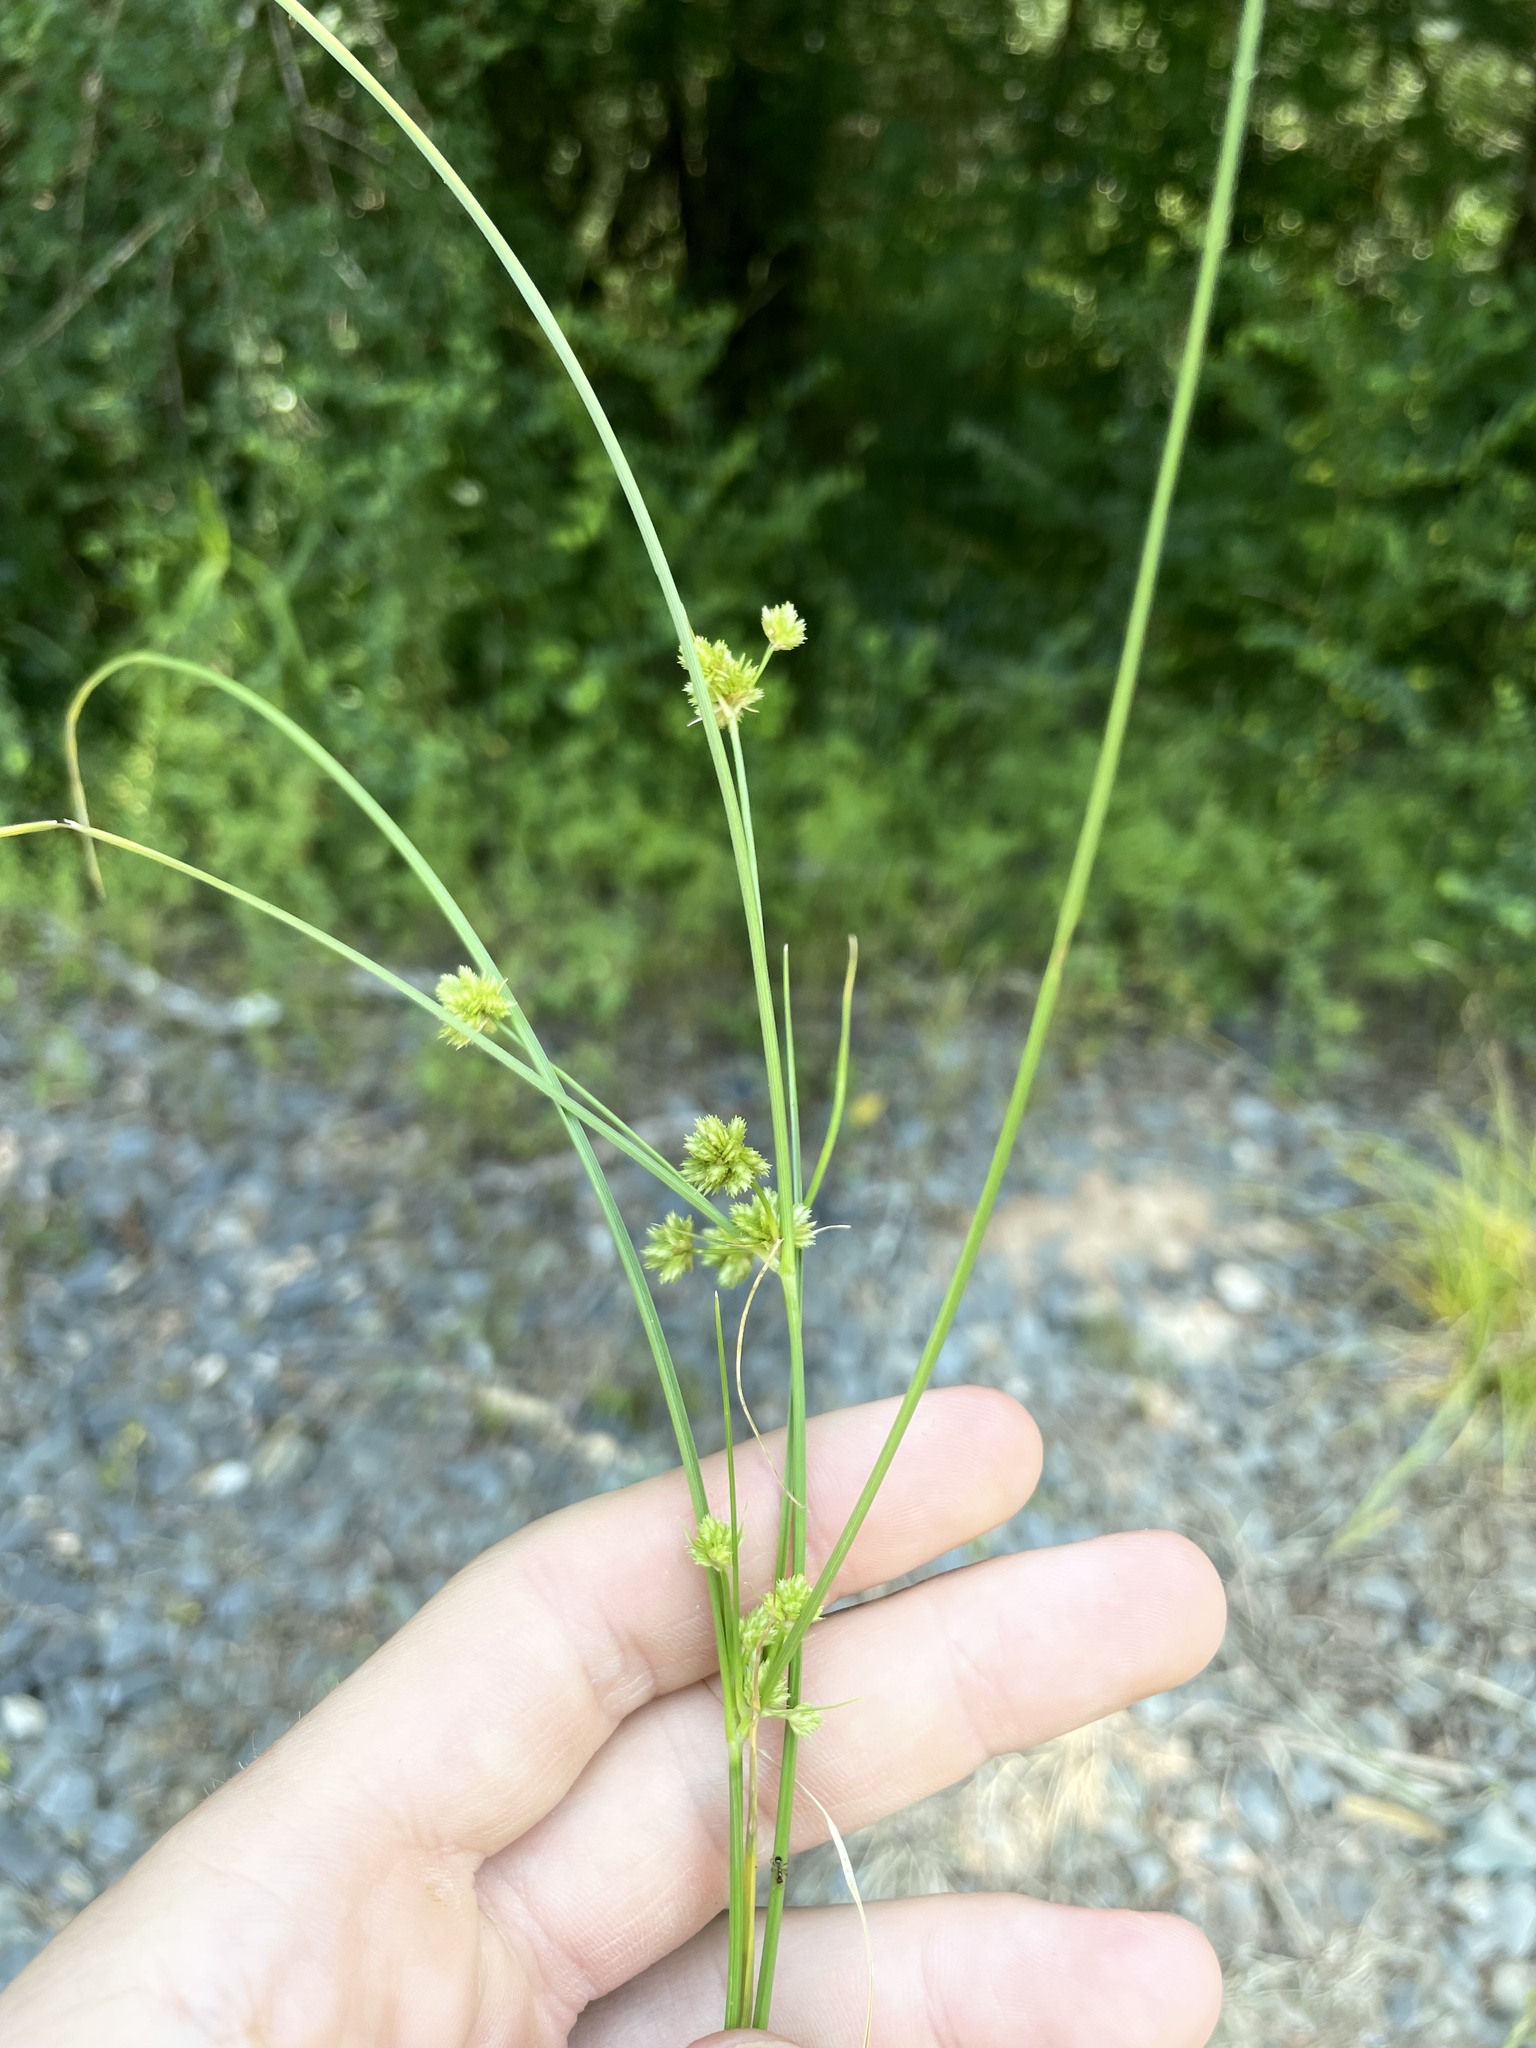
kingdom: Plantae
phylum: Tracheophyta
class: Liliopsida
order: Poales
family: Cyperaceae
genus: Cyperus
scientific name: Cyperus acuminatus
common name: Short-pointed cyperus
